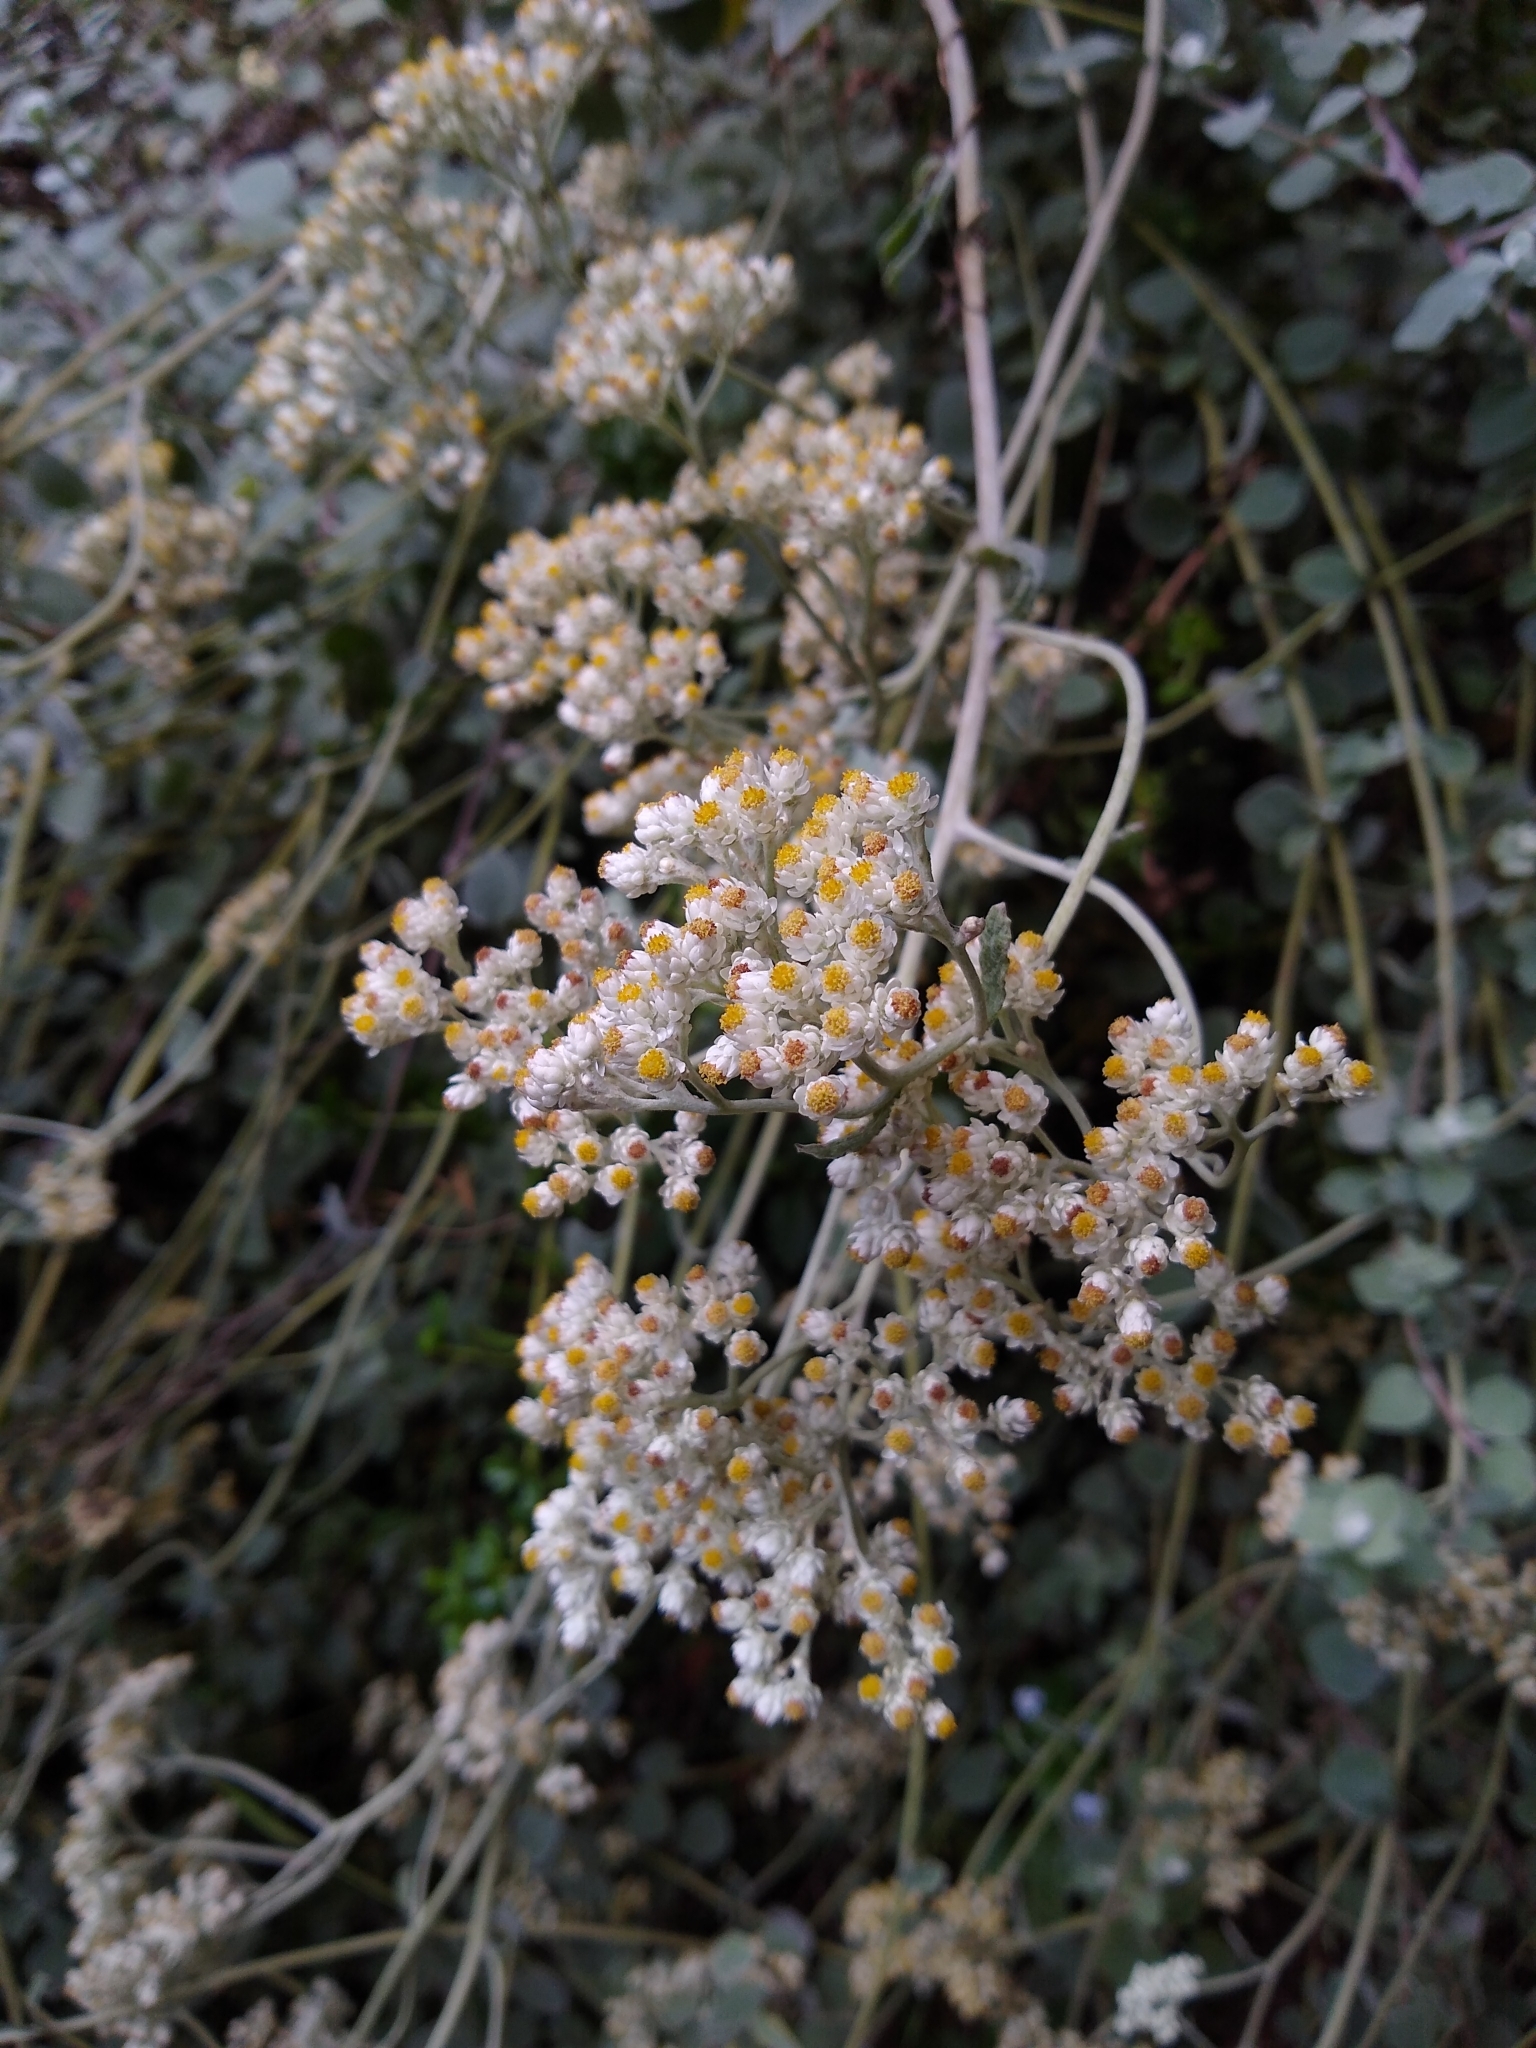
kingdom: Plantae
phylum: Tracheophyta
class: Magnoliopsida
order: Asterales
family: Asteraceae
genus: Helichrysum
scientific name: Helichrysum petiolare
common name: Licorice-plant
